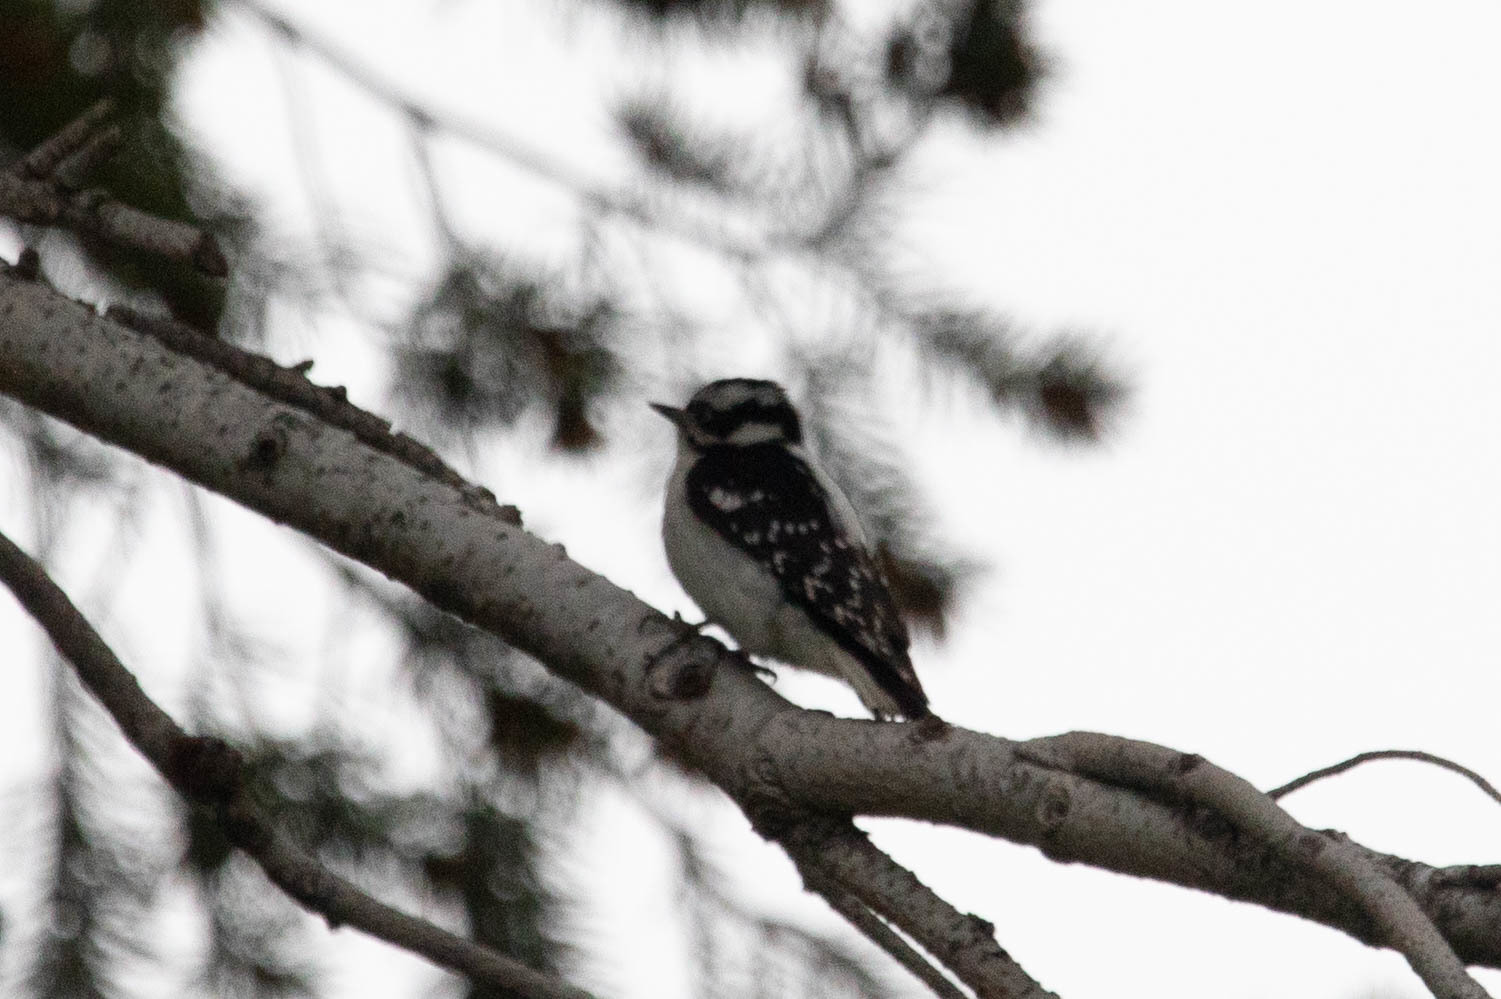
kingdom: Animalia
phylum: Chordata
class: Aves
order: Piciformes
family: Picidae
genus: Dryobates
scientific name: Dryobates pubescens
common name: Downy woodpecker
